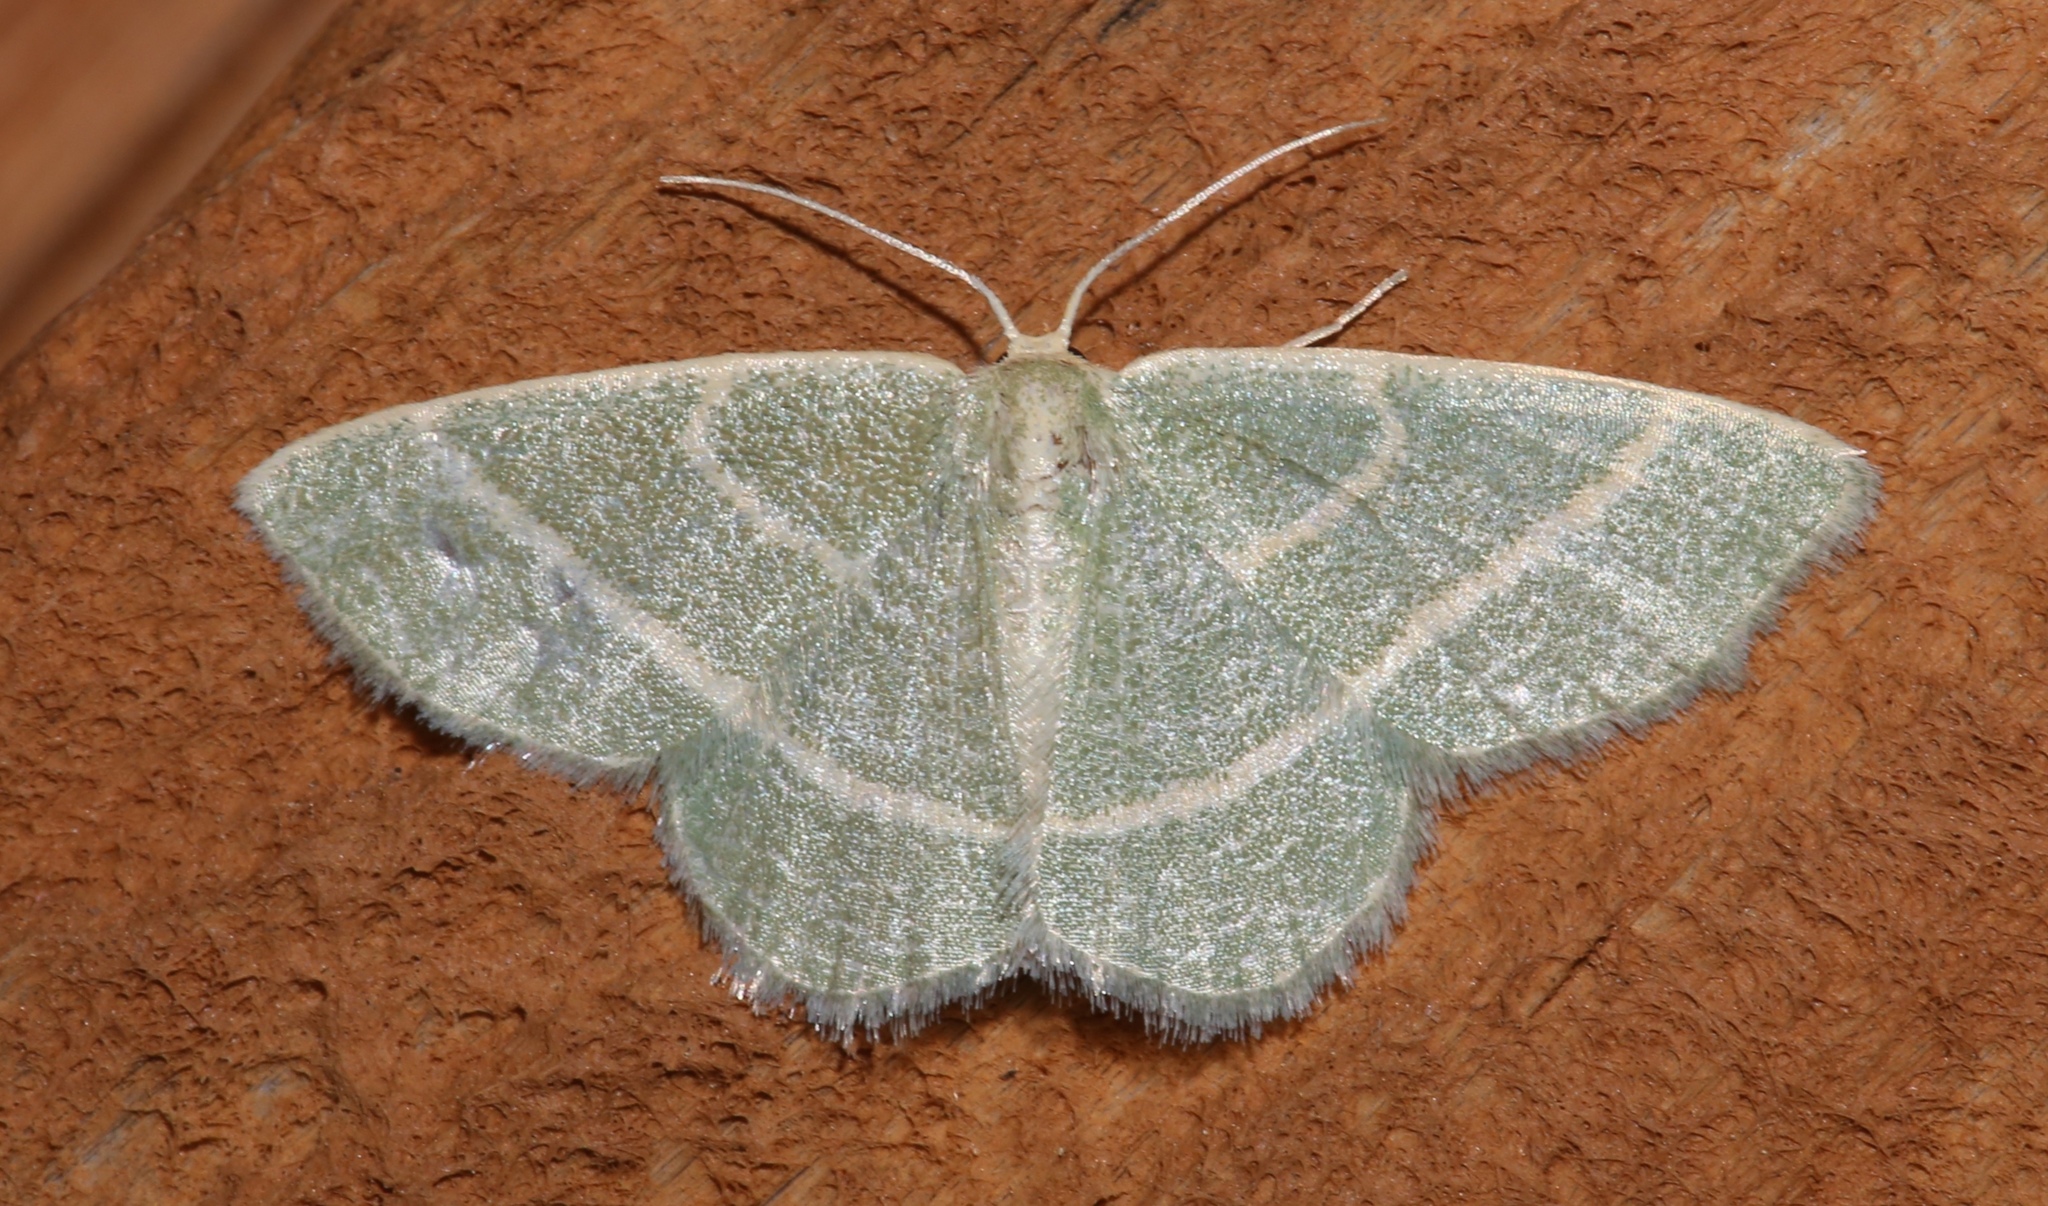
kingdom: Animalia
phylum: Arthropoda
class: Insecta
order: Lepidoptera
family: Geometridae
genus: Chlorochlamys
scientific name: Chlorochlamys chloroleucaria
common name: Blackberry looper
